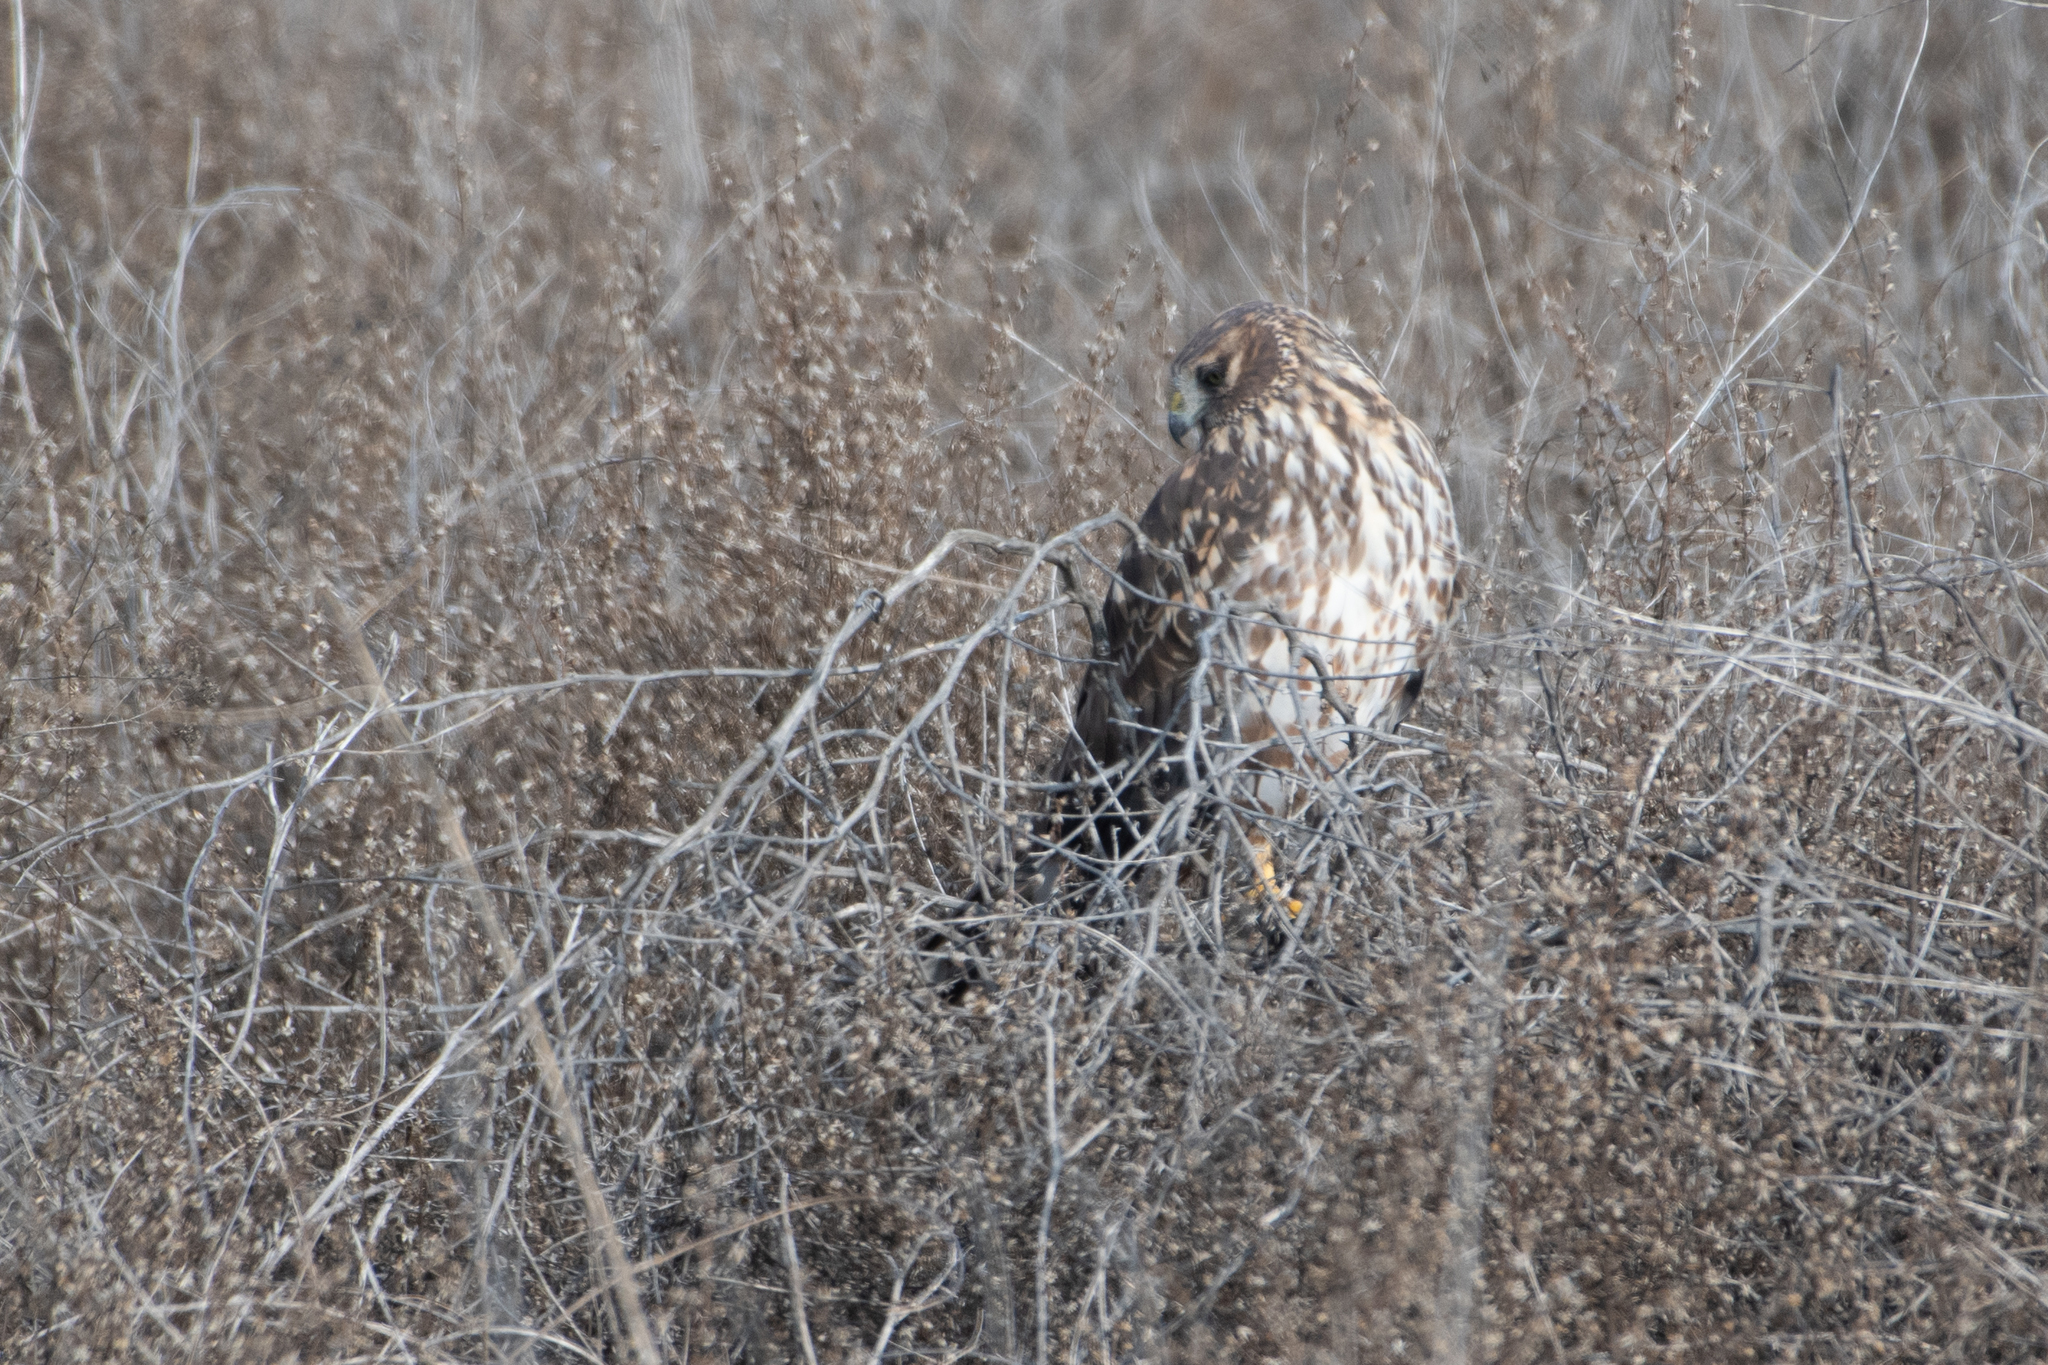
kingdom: Animalia
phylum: Chordata
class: Aves
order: Accipitriformes
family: Accipitridae
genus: Circus
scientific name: Circus cyaneus
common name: Hen harrier
